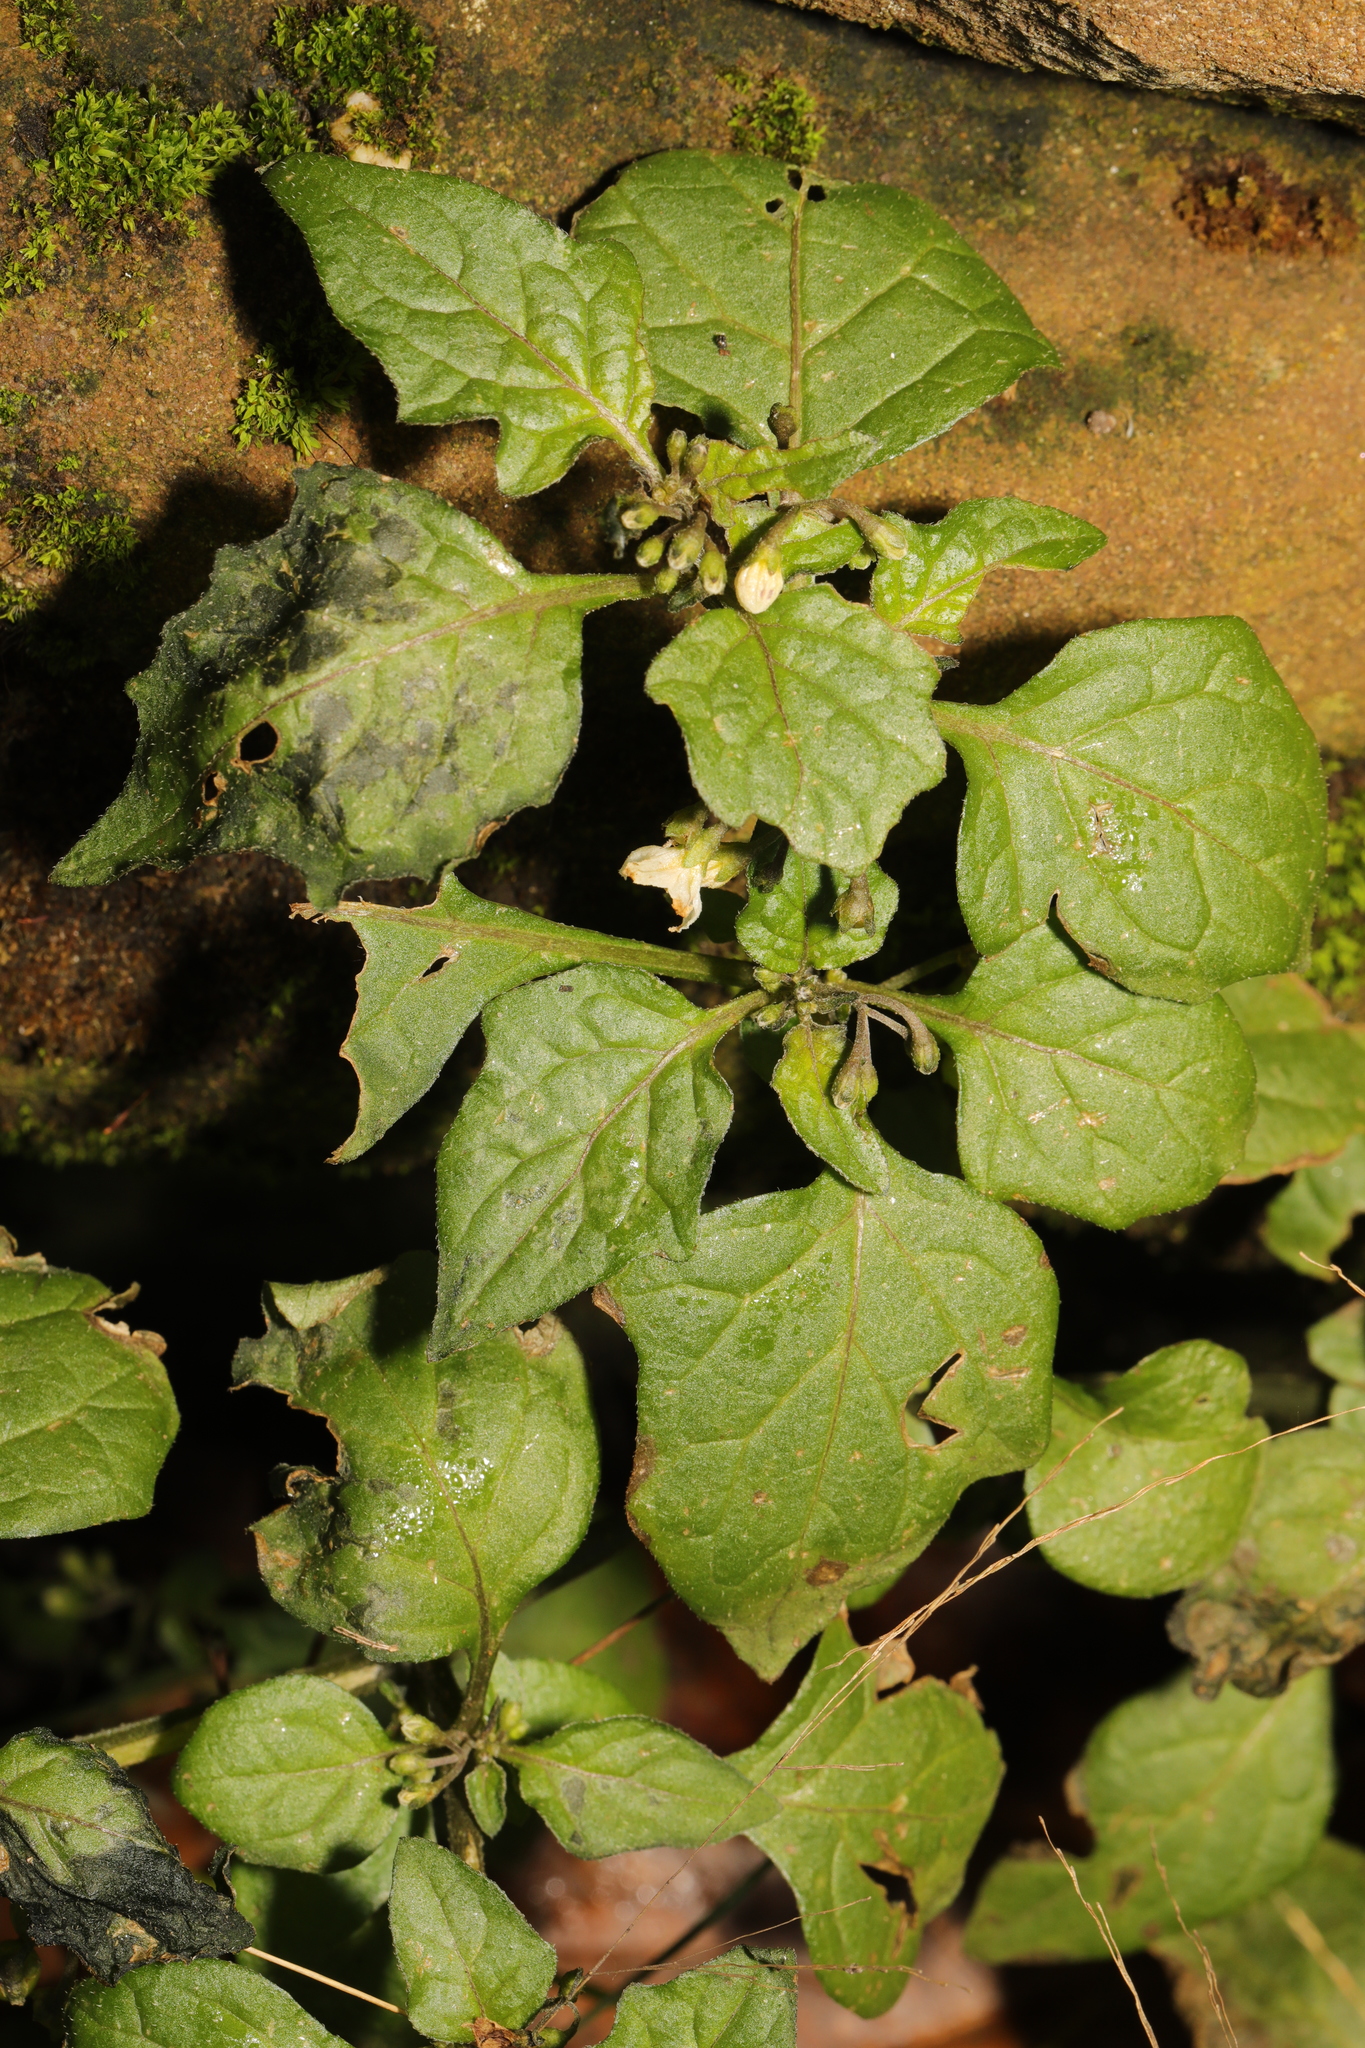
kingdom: Plantae
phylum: Tracheophyta
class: Magnoliopsida
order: Solanales
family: Solanaceae
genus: Solanum
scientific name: Solanum nigrum
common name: Black nightshade
